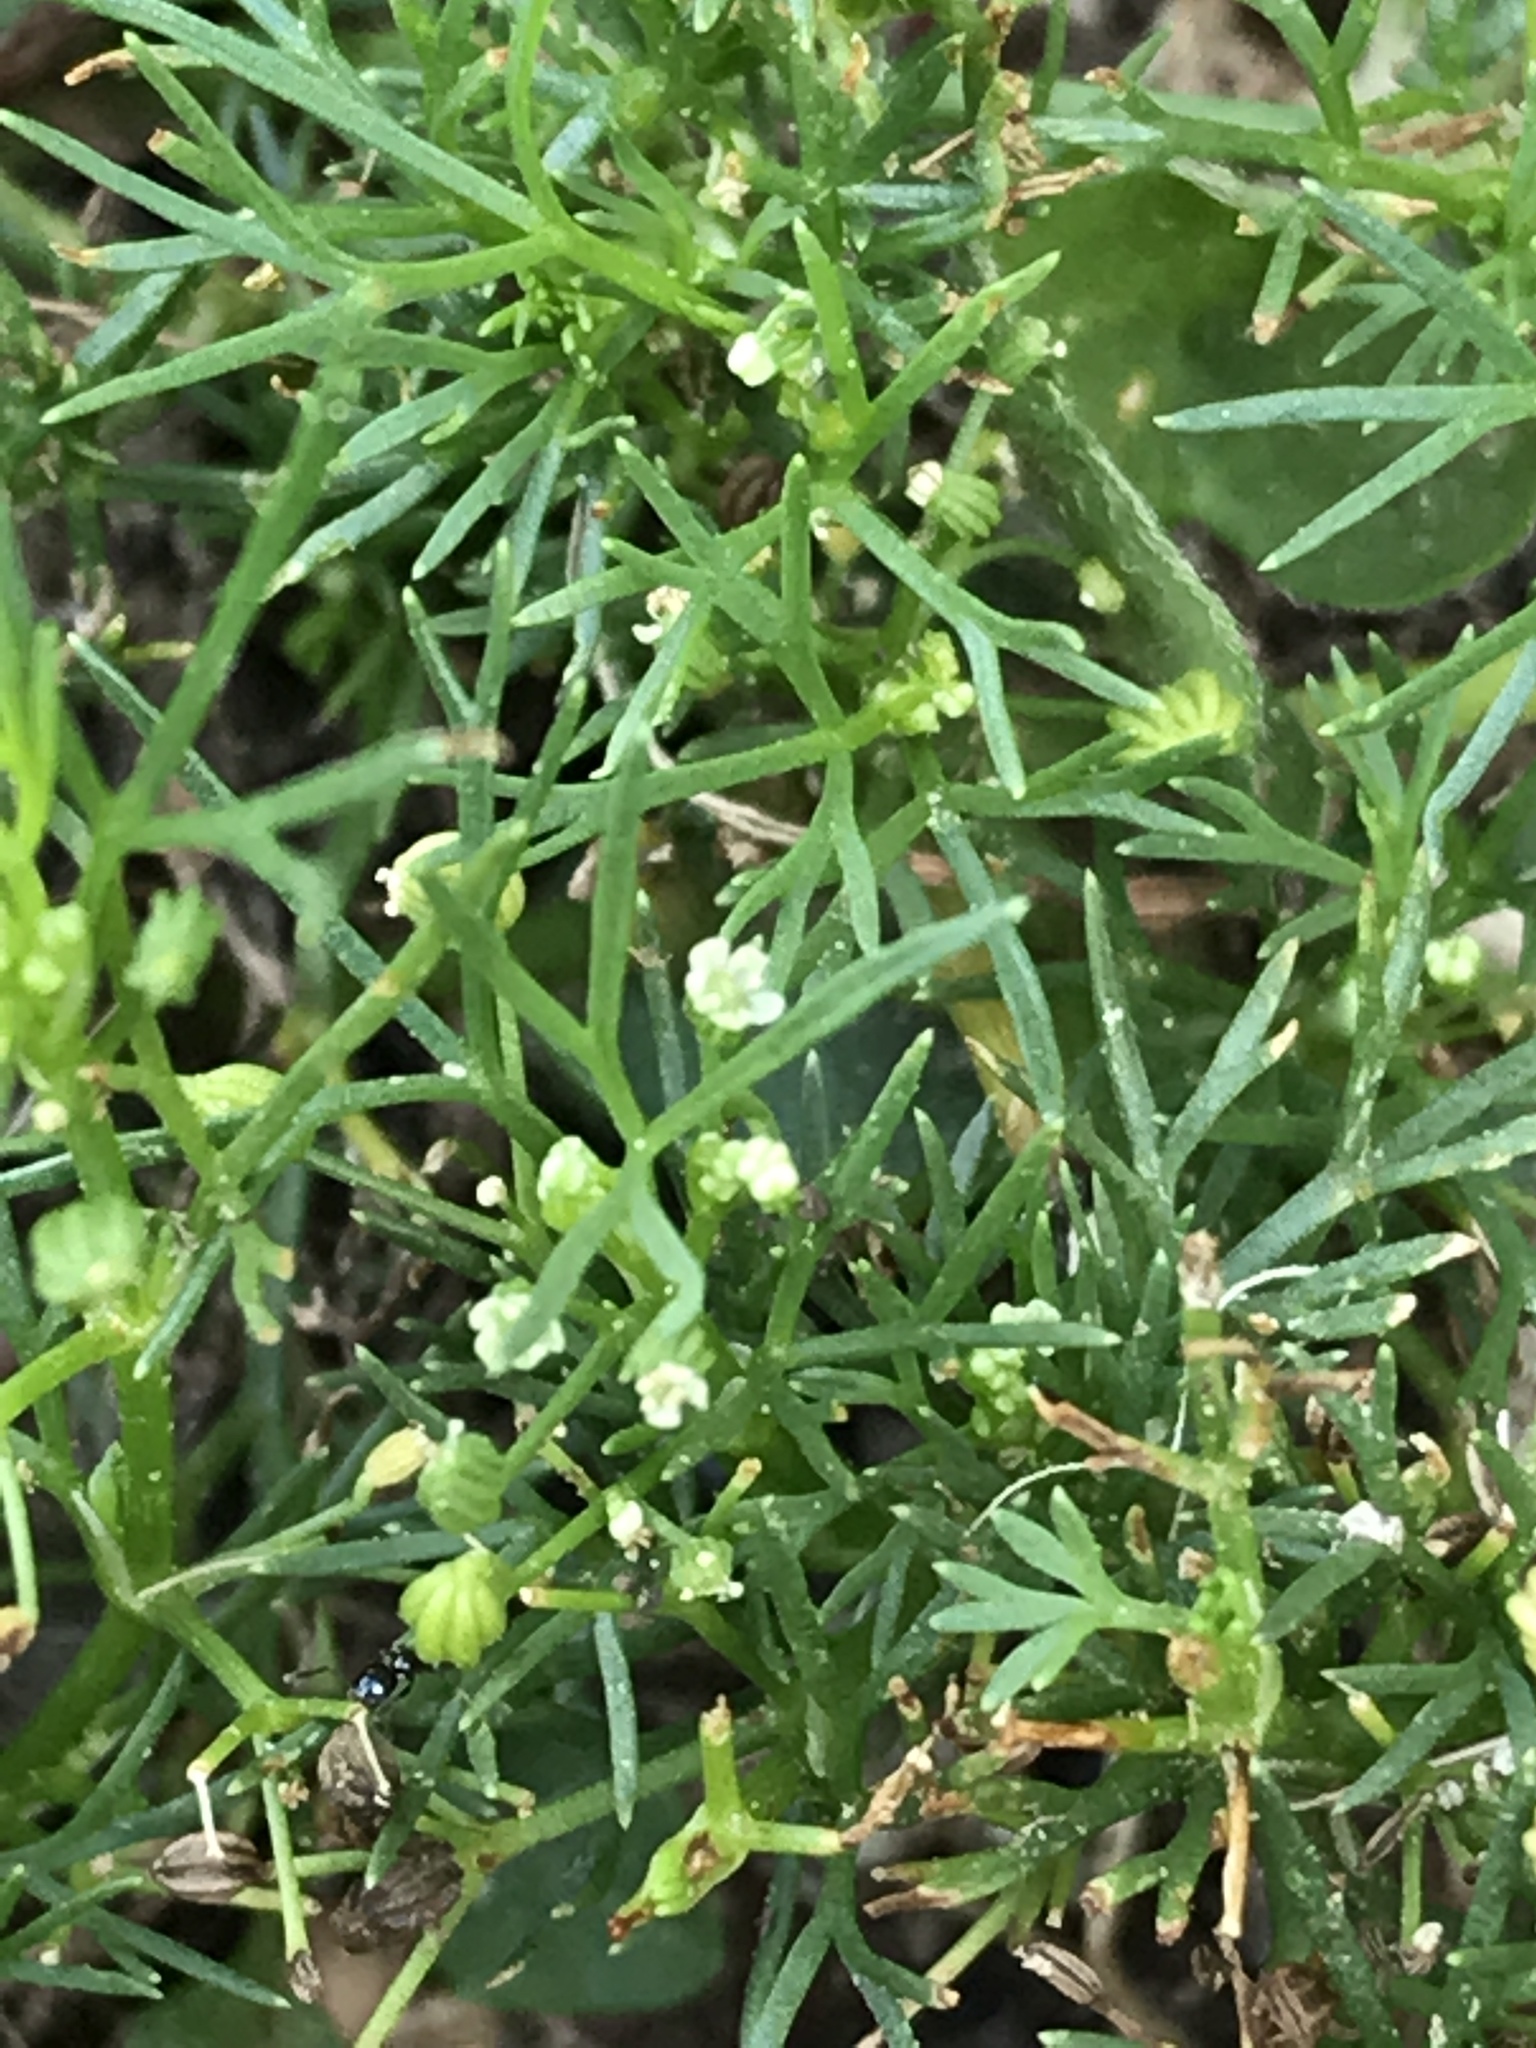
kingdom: Plantae
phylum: Tracheophyta
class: Magnoliopsida
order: Apiales
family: Apiaceae
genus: Cyclospermum
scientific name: Cyclospermum leptophyllum
